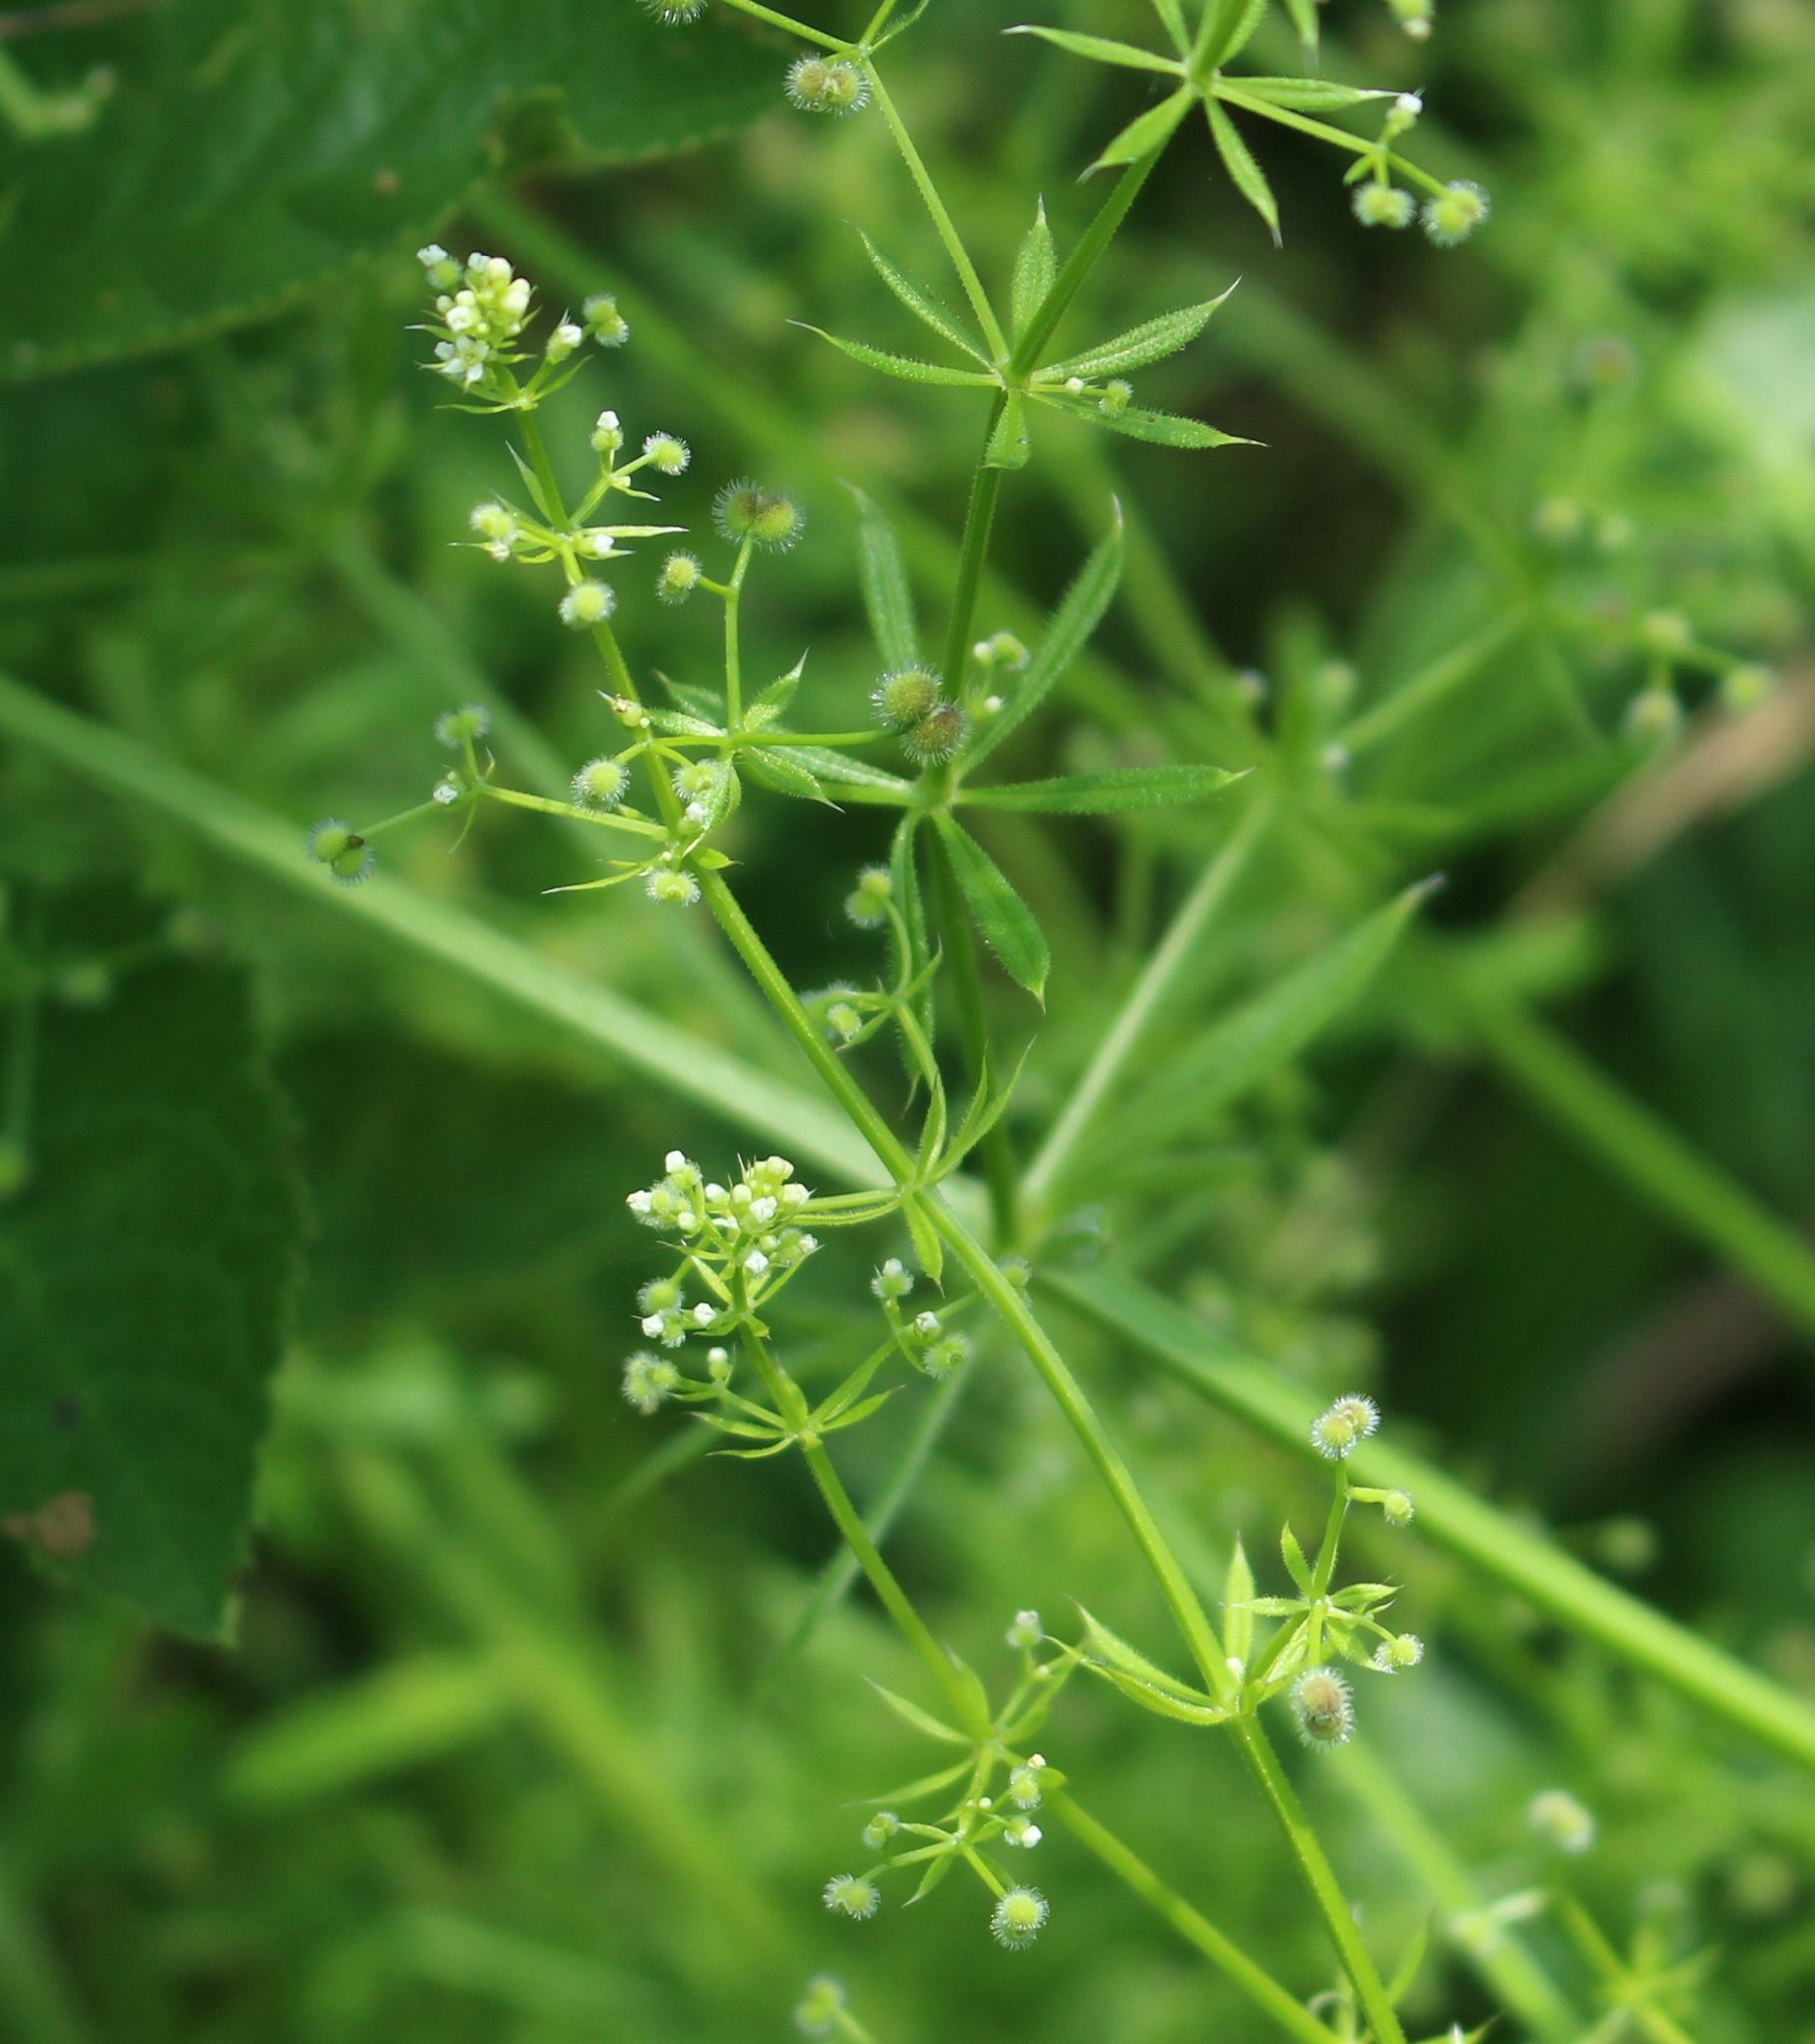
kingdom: Plantae
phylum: Tracheophyta
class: Magnoliopsida
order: Gentianales
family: Rubiaceae
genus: Galium
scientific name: Galium aparine
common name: Cleavers
